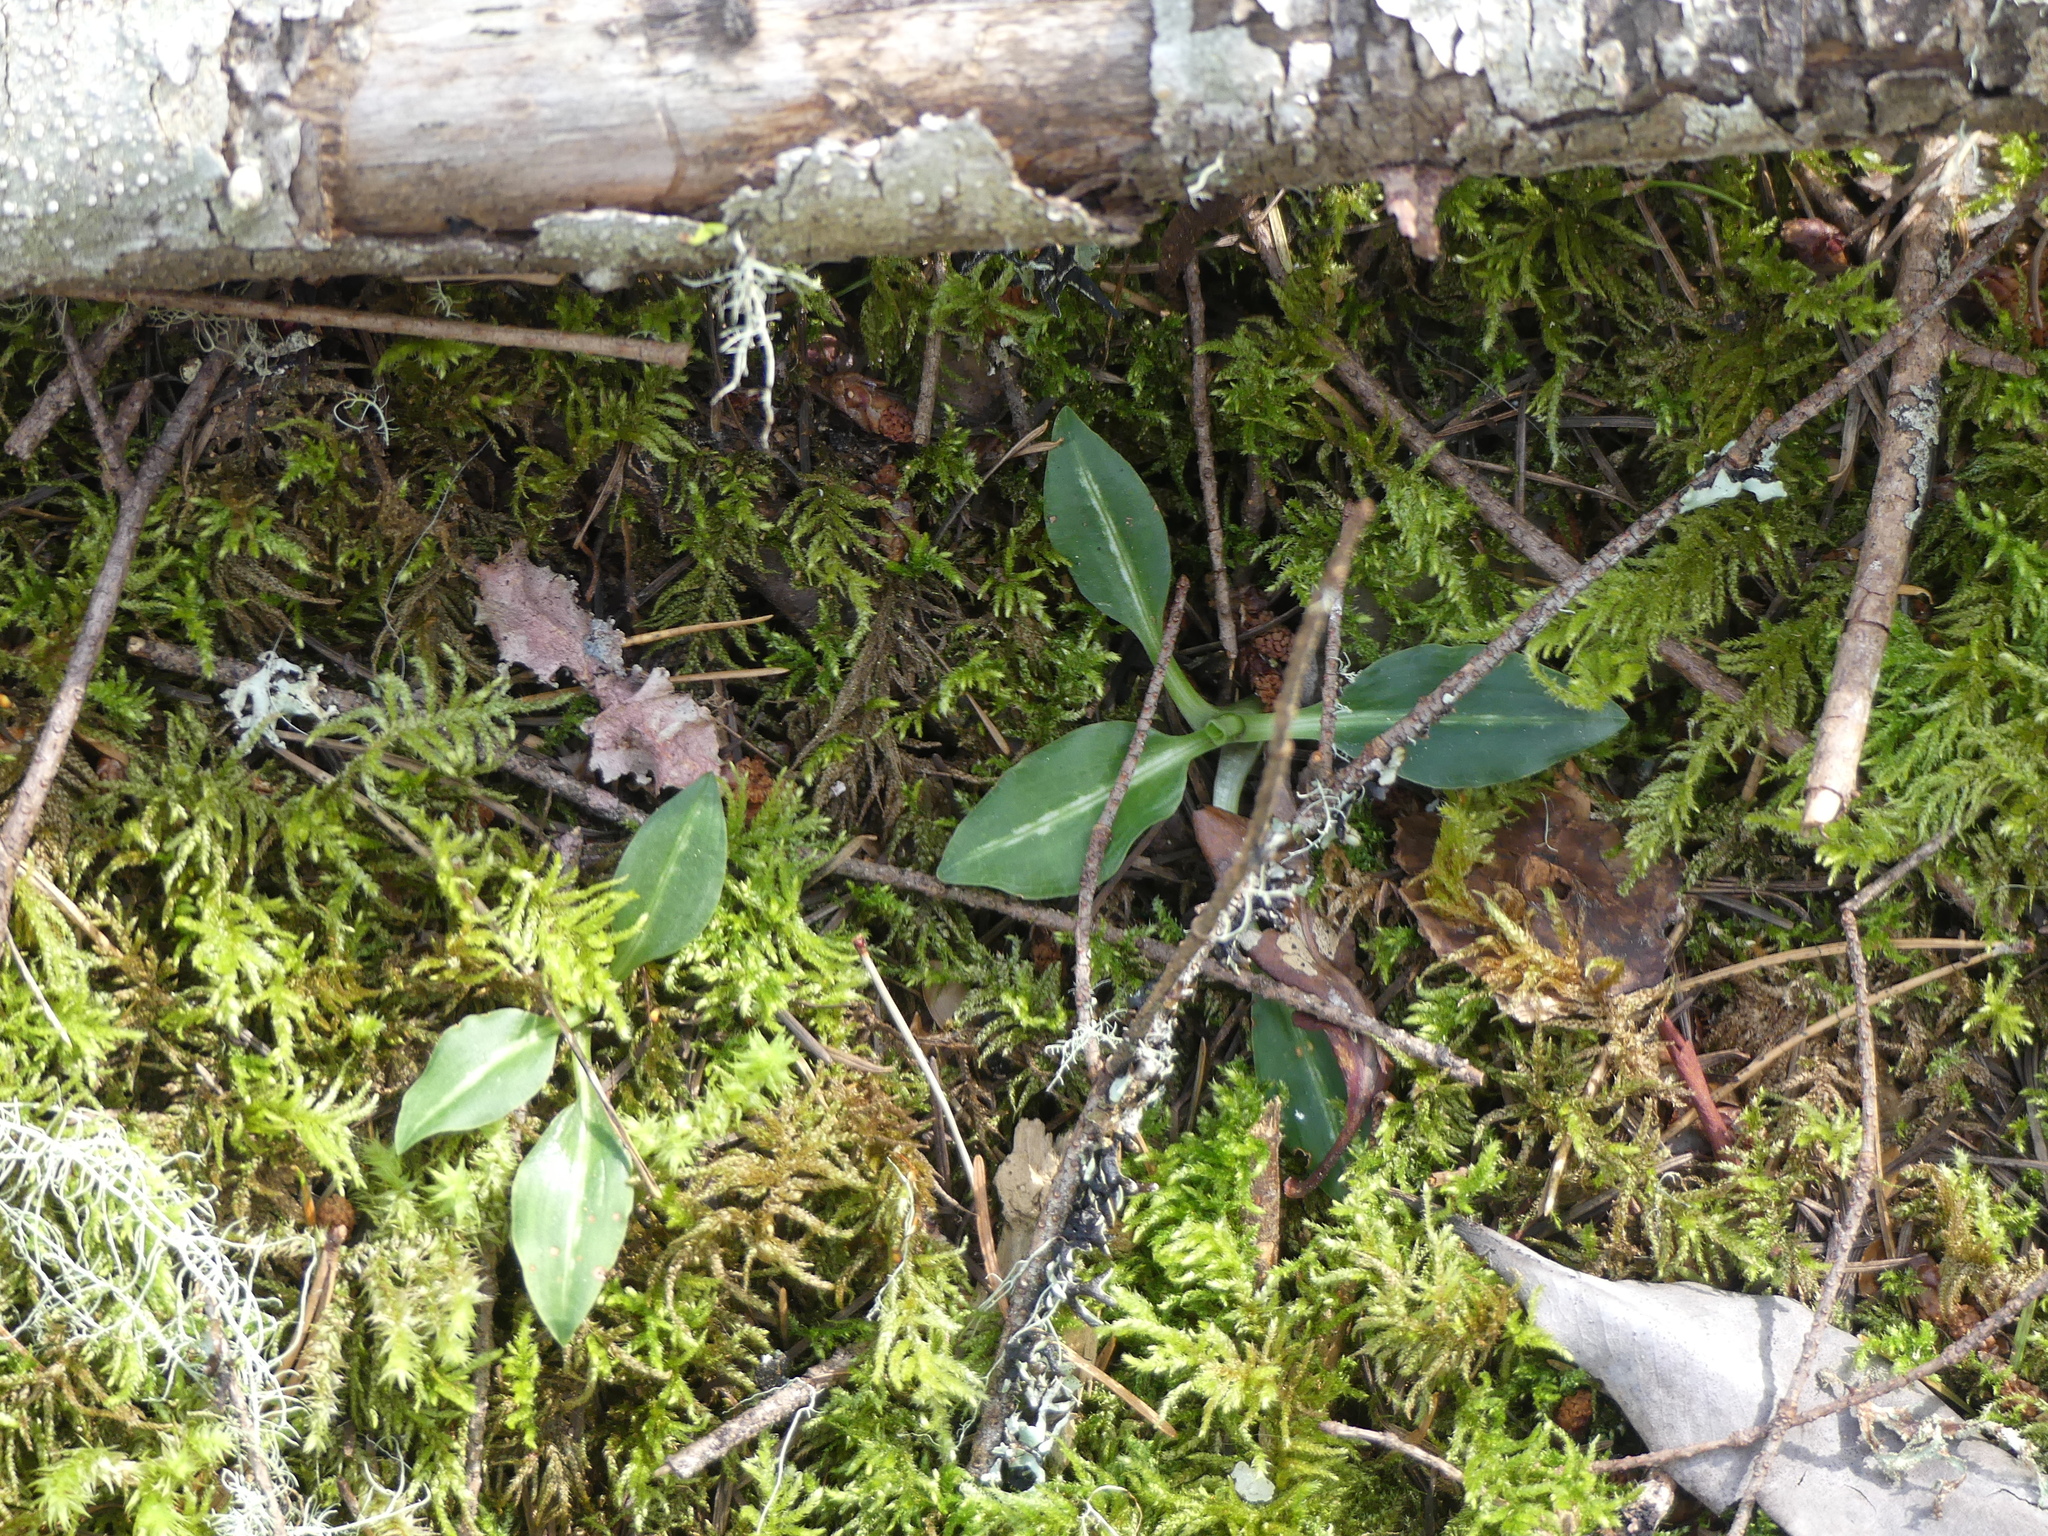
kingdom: Plantae
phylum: Tracheophyta
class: Liliopsida
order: Asparagales
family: Orchidaceae
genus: Goodyera
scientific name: Goodyera oblongifolia
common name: Giant rattlesnake-plantain
